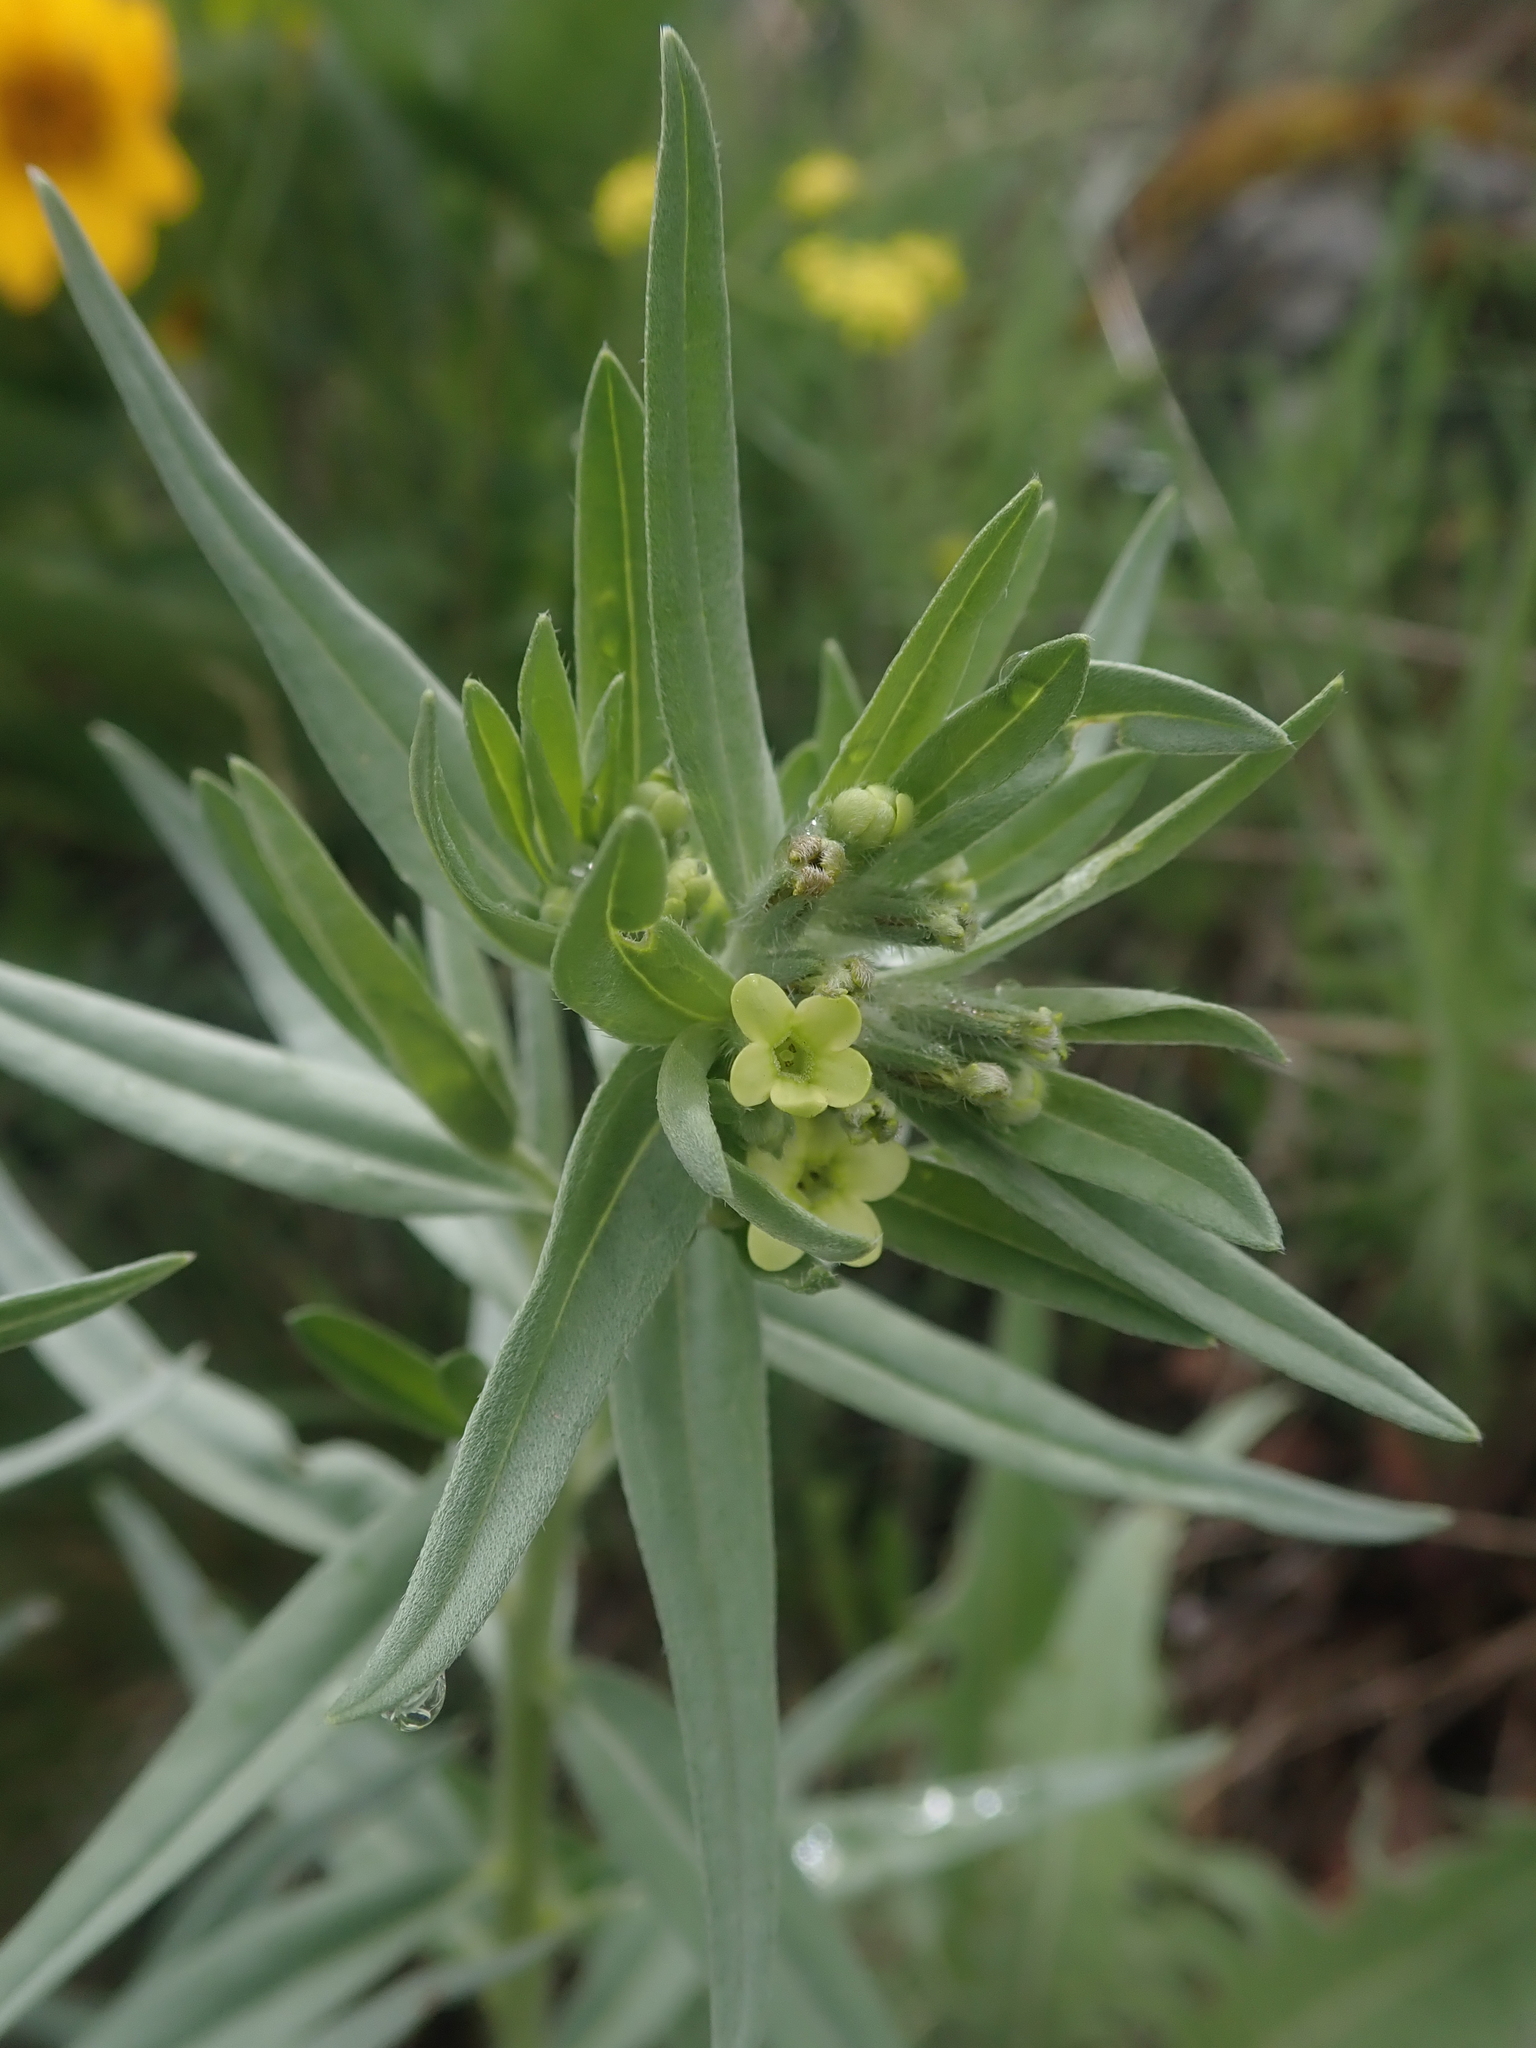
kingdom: Plantae
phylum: Tracheophyta
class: Magnoliopsida
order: Boraginales
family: Boraginaceae
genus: Lithospermum
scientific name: Lithospermum ruderale
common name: Western gromwell
